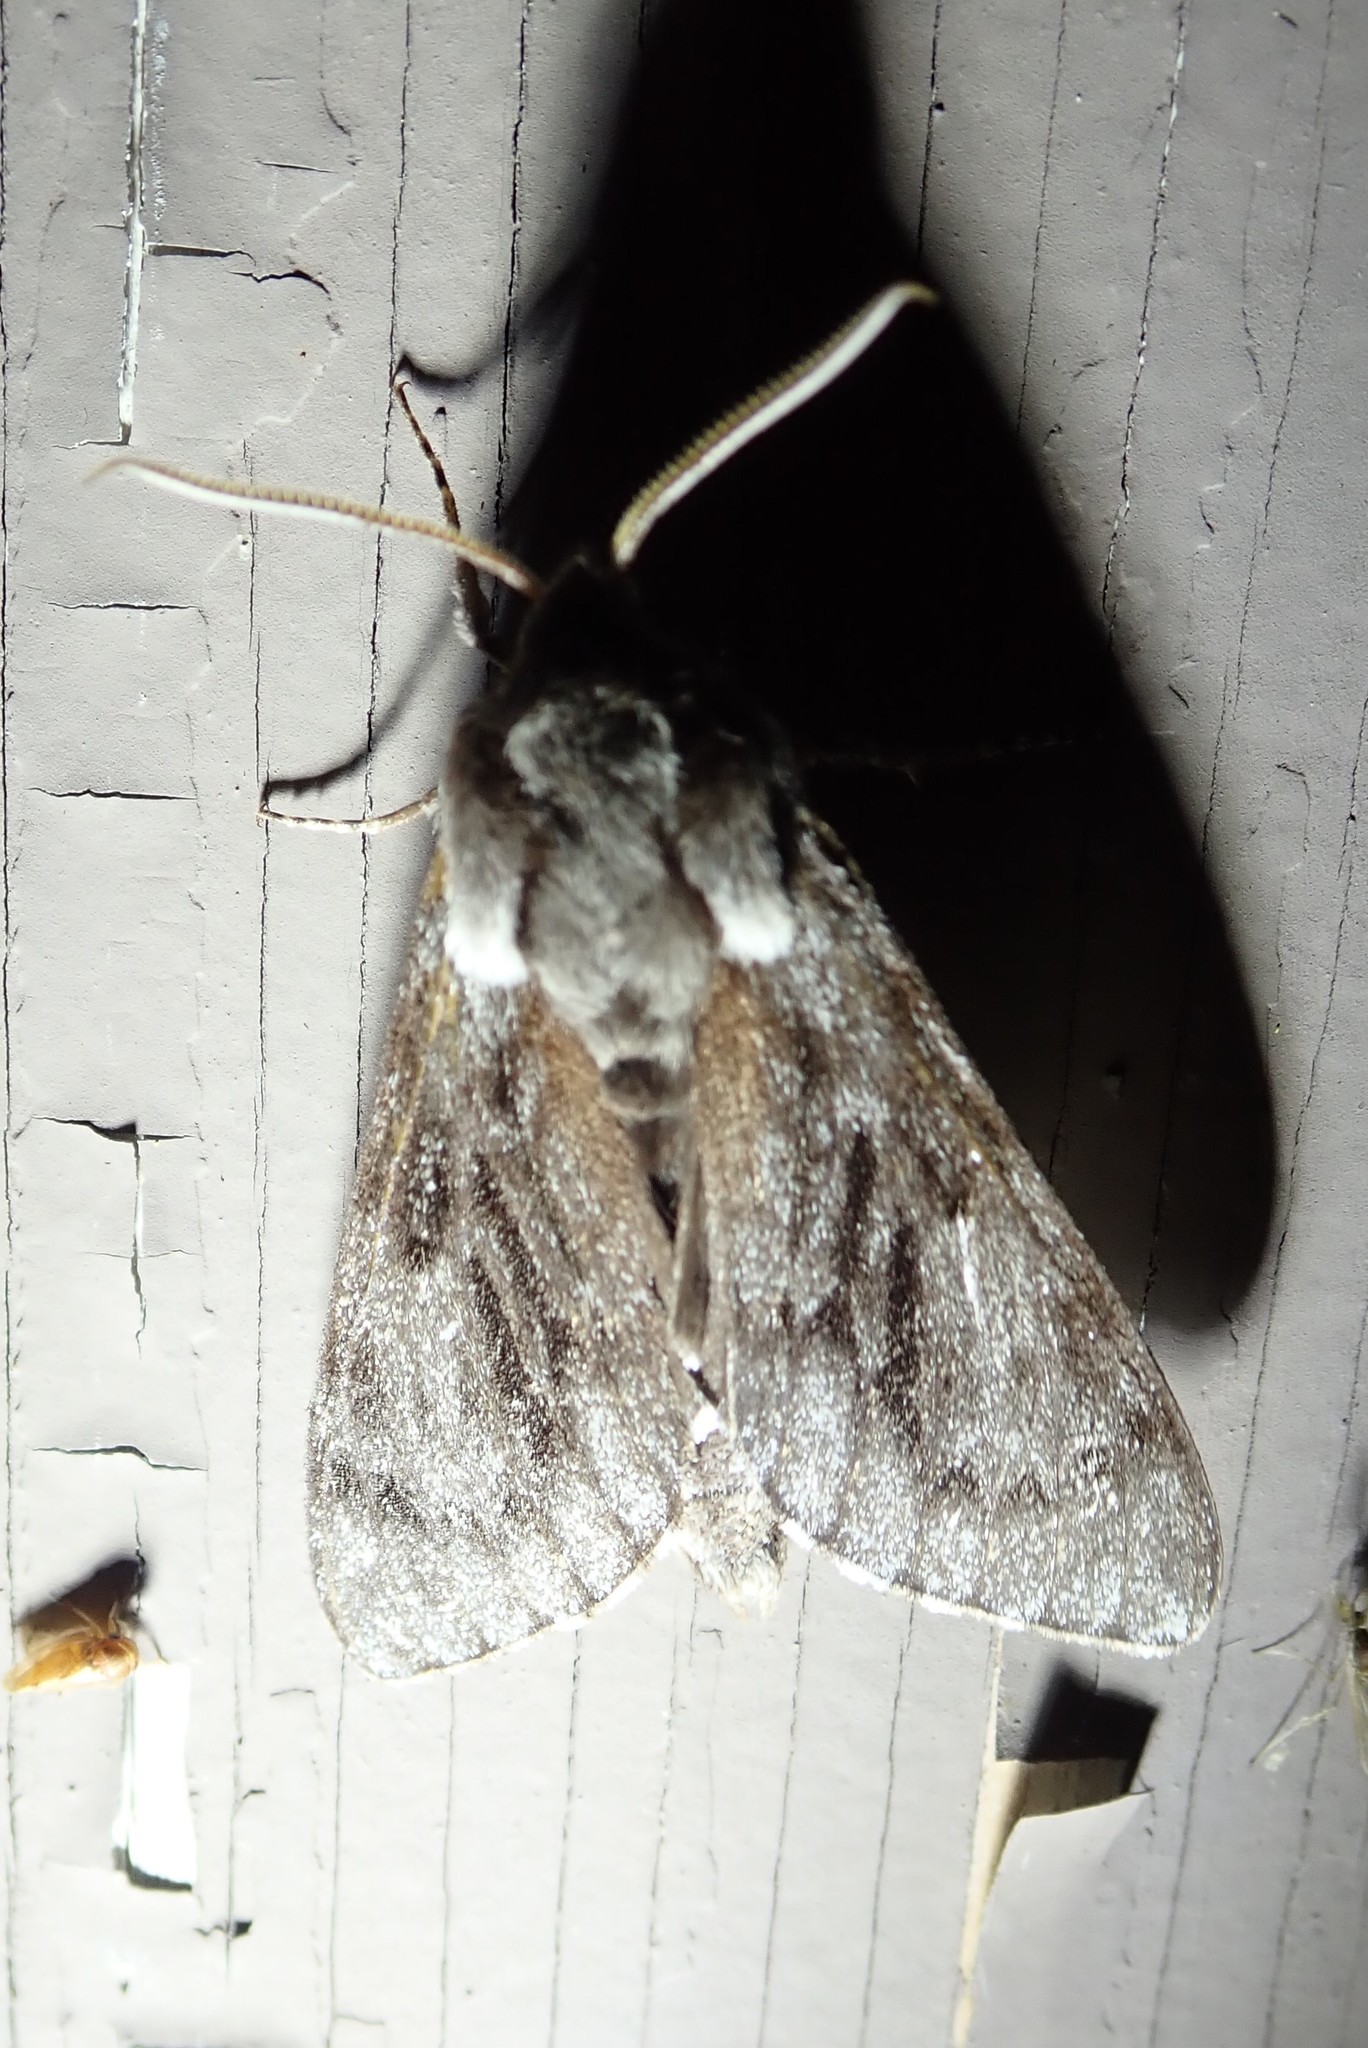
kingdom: Animalia
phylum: Arthropoda
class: Insecta
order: Lepidoptera
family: Sphingidae
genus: Lapara
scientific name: Lapara bombycoides
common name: Northern pine sphinx
